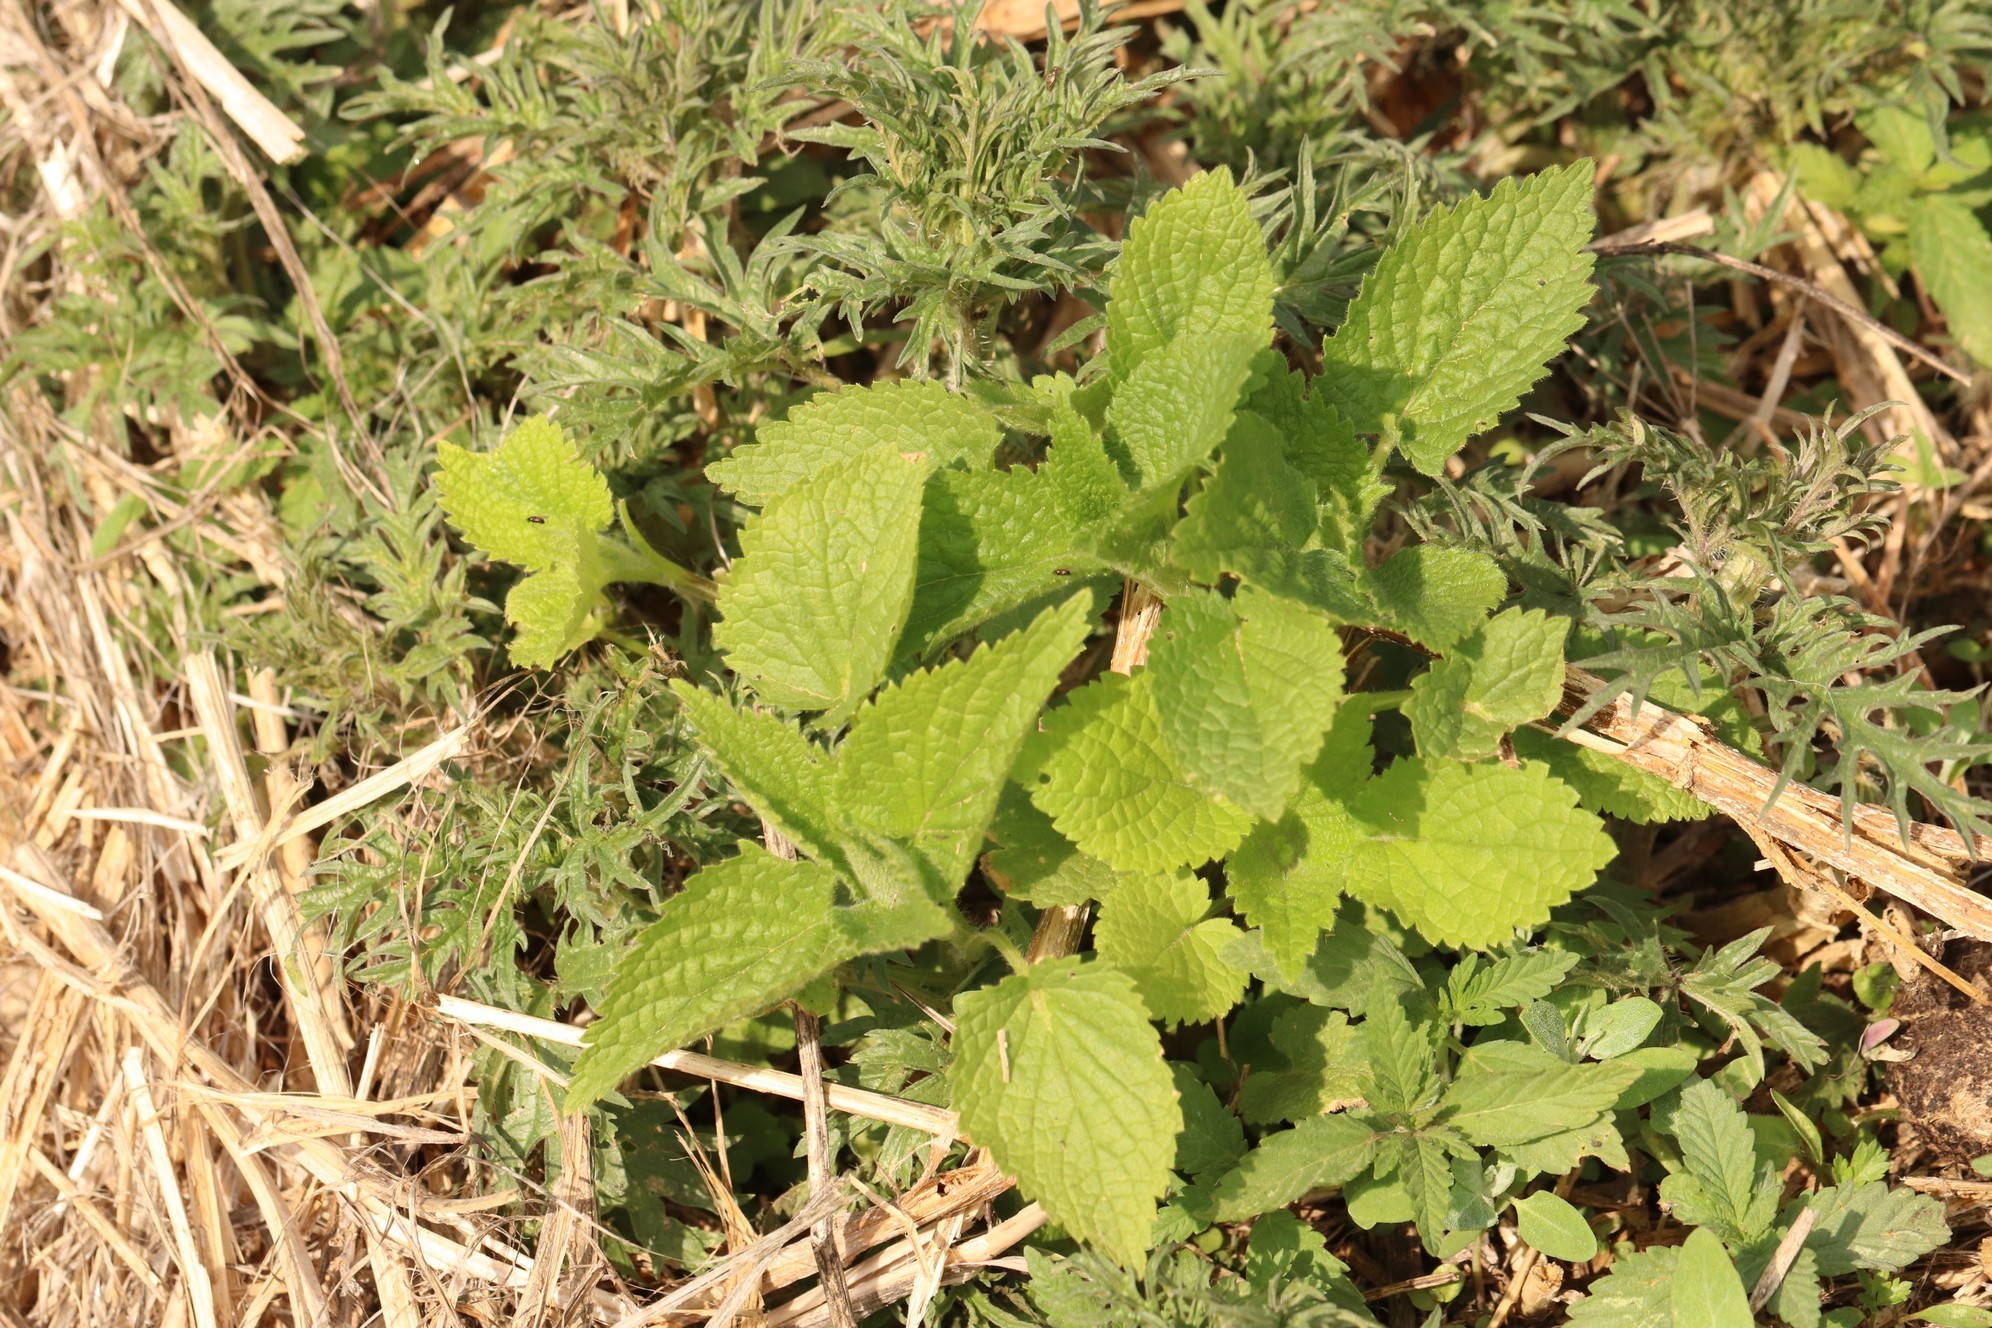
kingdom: Plantae
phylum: Tracheophyta
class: Magnoliopsida
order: Lamiales
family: Lamiaceae
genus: Lamium
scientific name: Lamium album
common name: White dead-nettle
